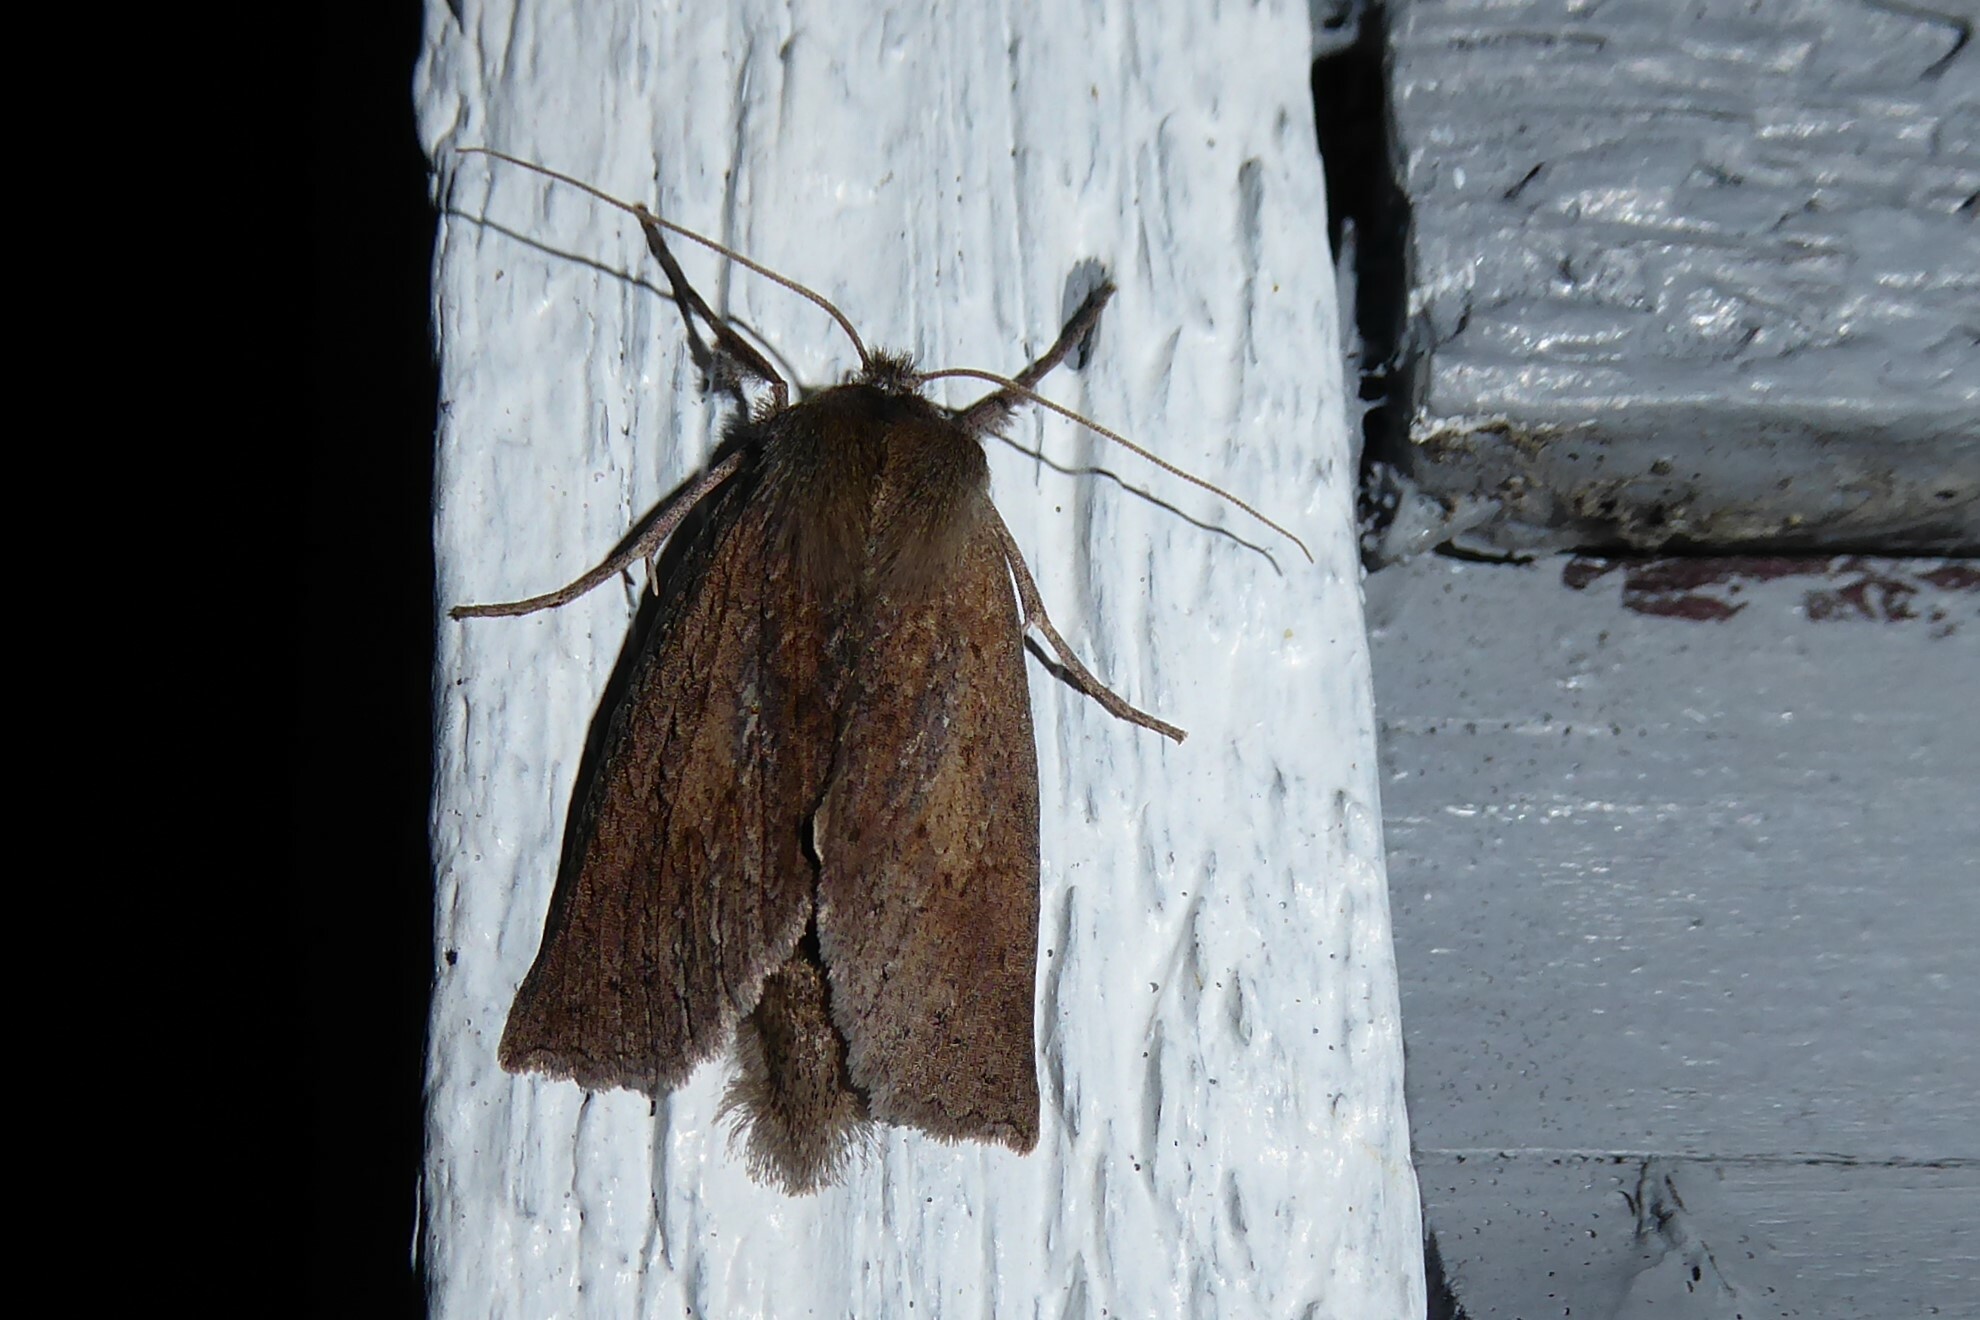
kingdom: Animalia
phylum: Arthropoda
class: Insecta
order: Lepidoptera
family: Geometridae
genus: Declana
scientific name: Declana leptomera
